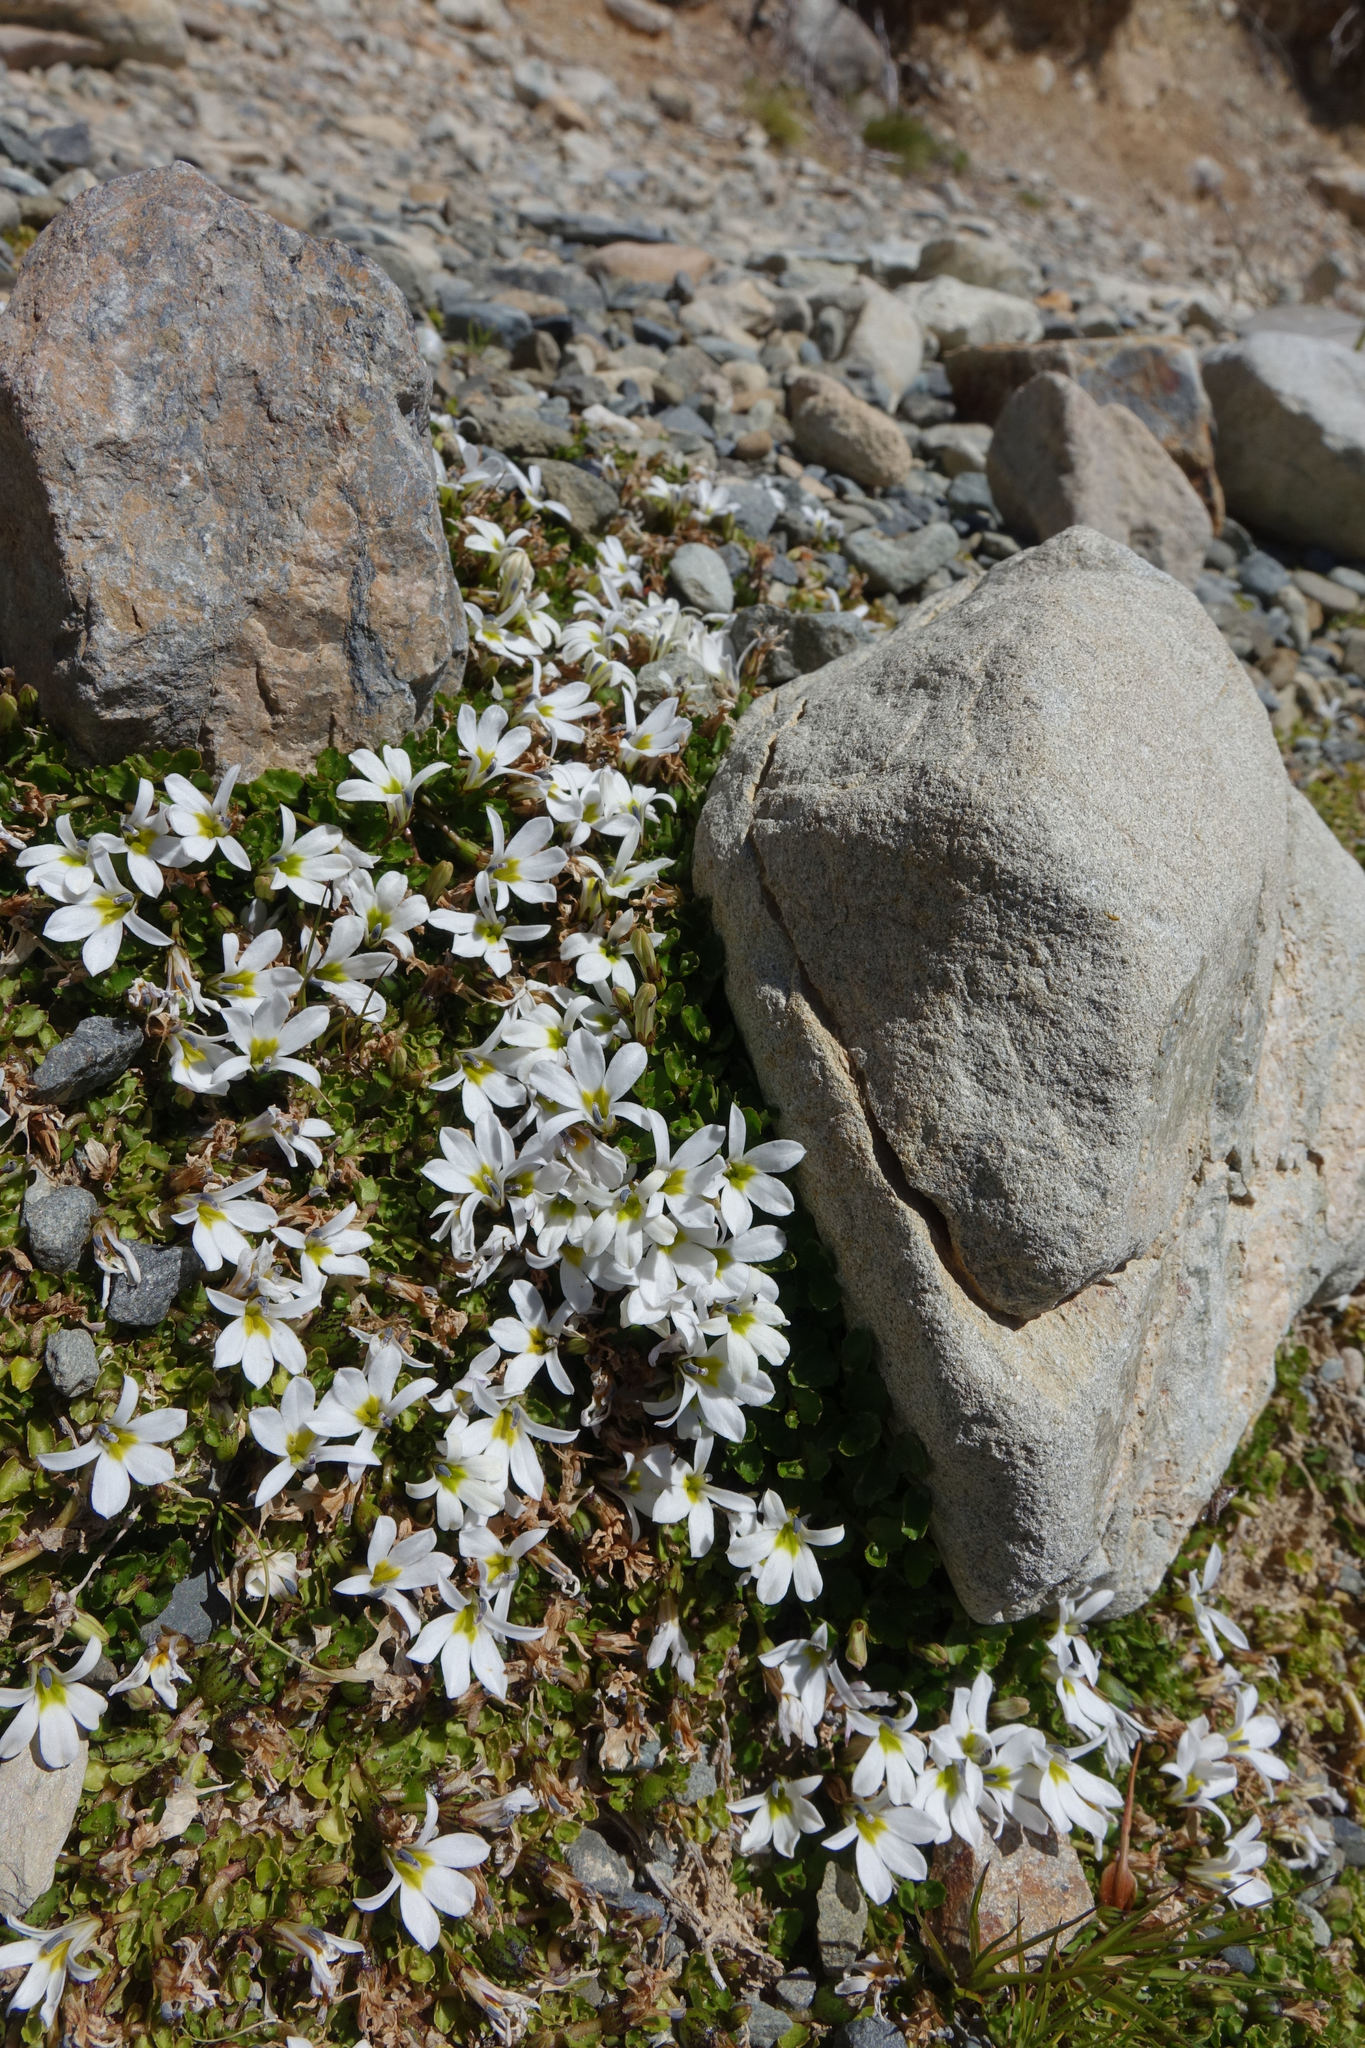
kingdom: Plantae
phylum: Tracheophyta
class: Magnoliopsida
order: Asterales
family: Campanulaceae
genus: Lobelia
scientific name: Lobelia macrodon
